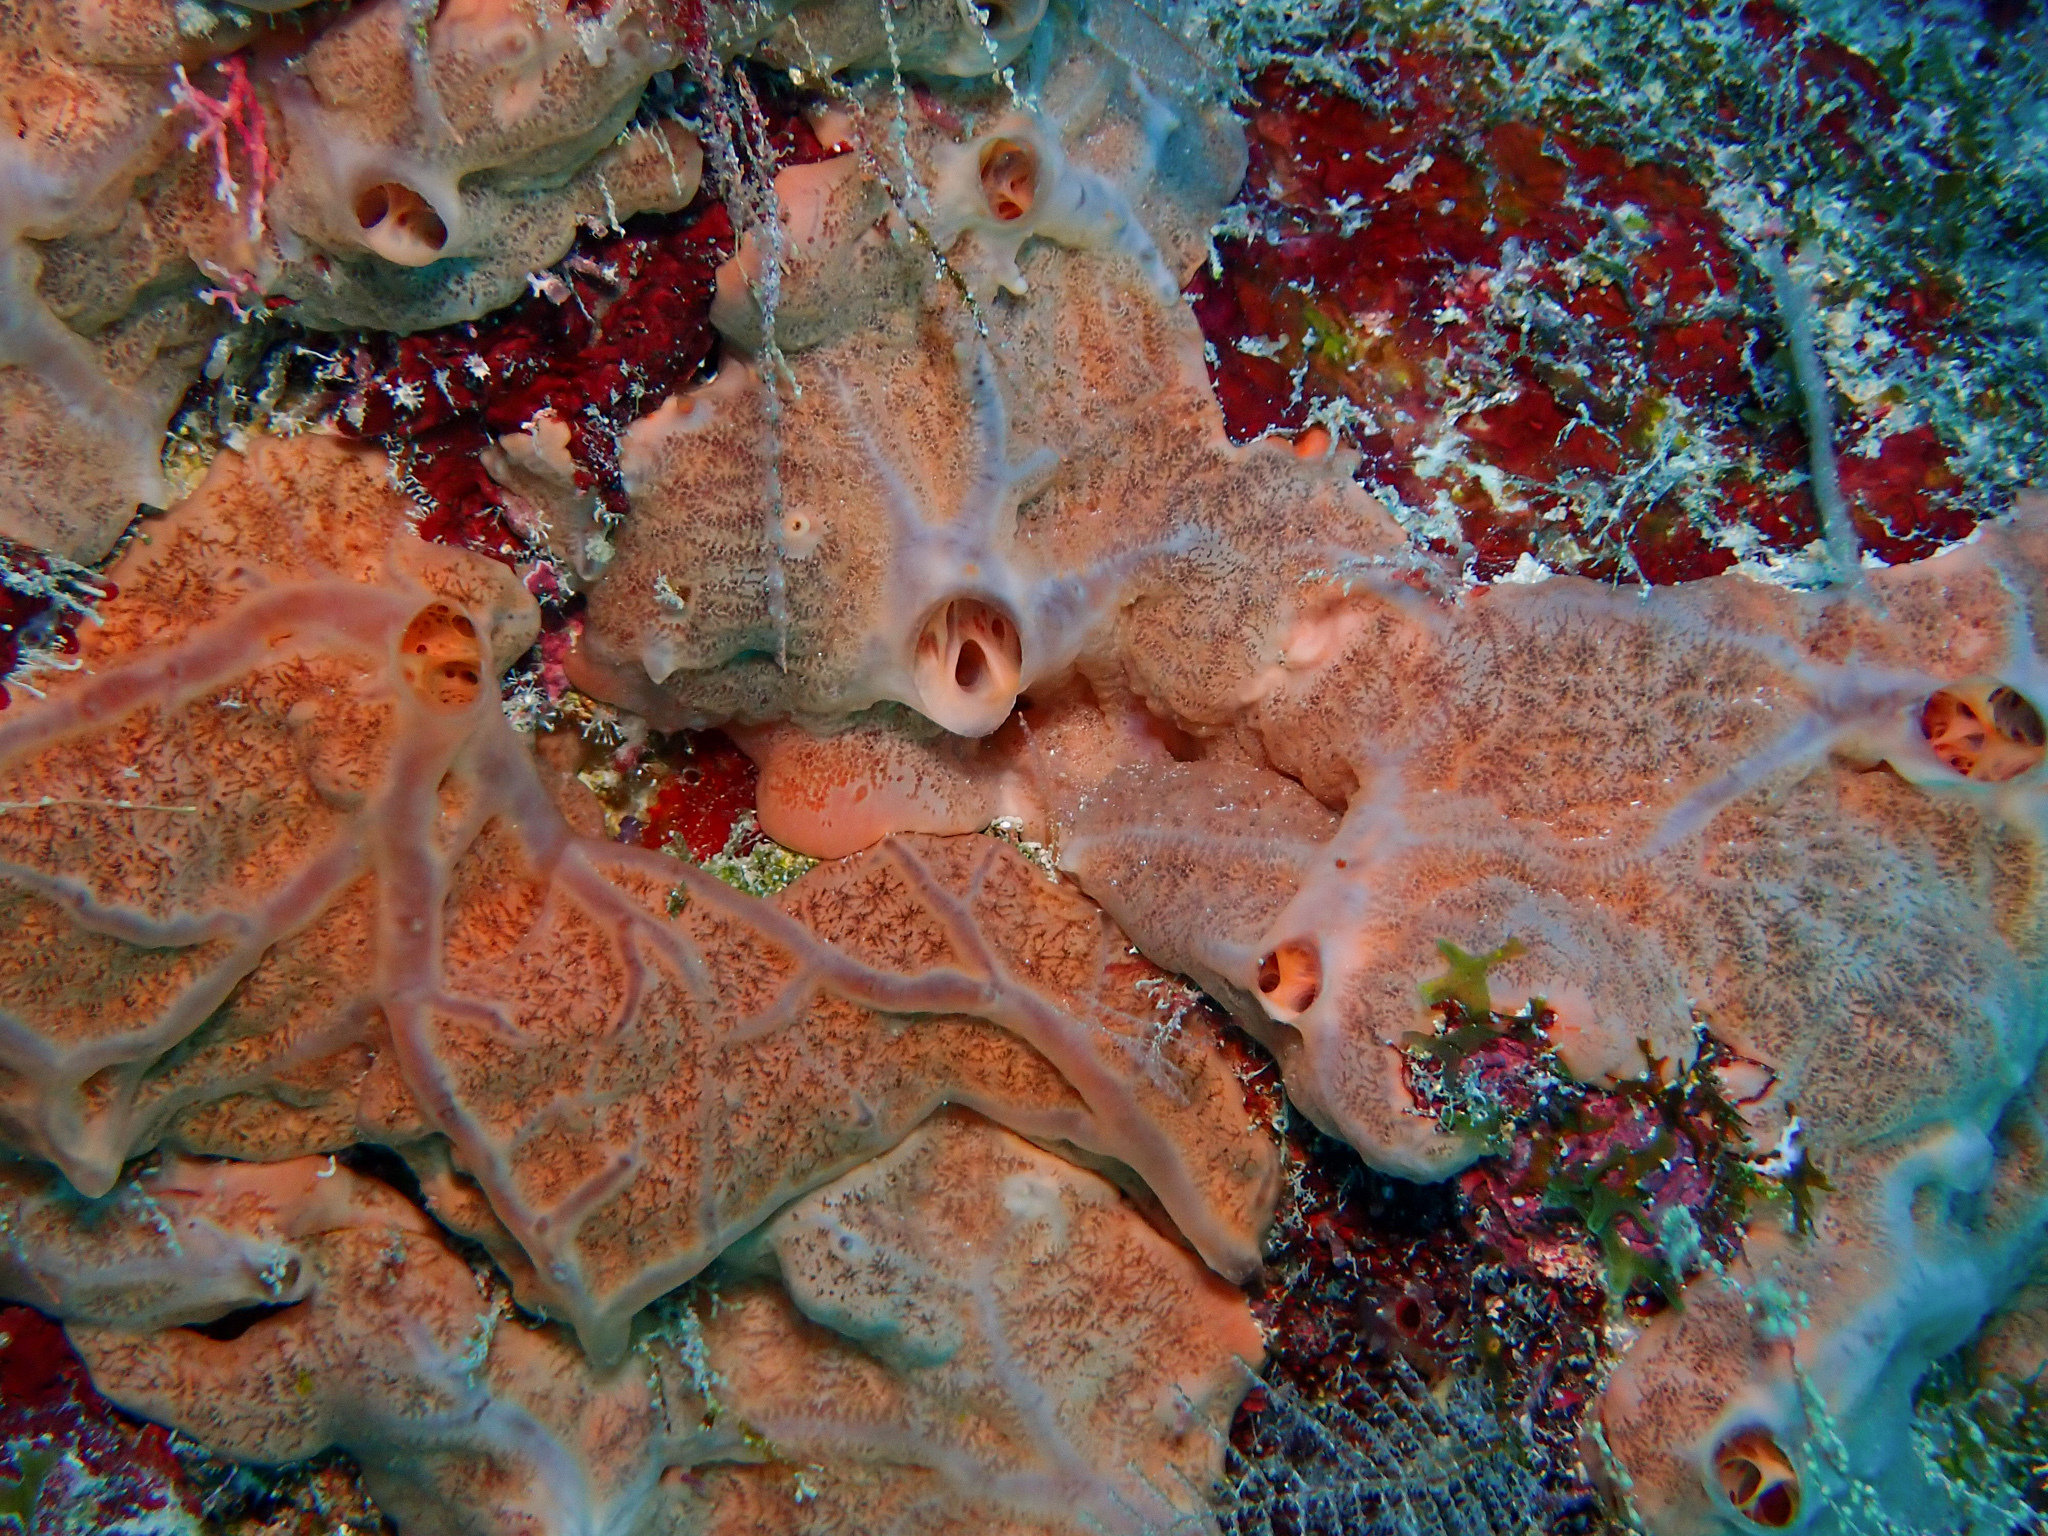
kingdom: Animalia
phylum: Porifera
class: Demospongiae
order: Clionaida
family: Spirastrellidae
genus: Spirastrella
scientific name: Spirastrella hartmani
